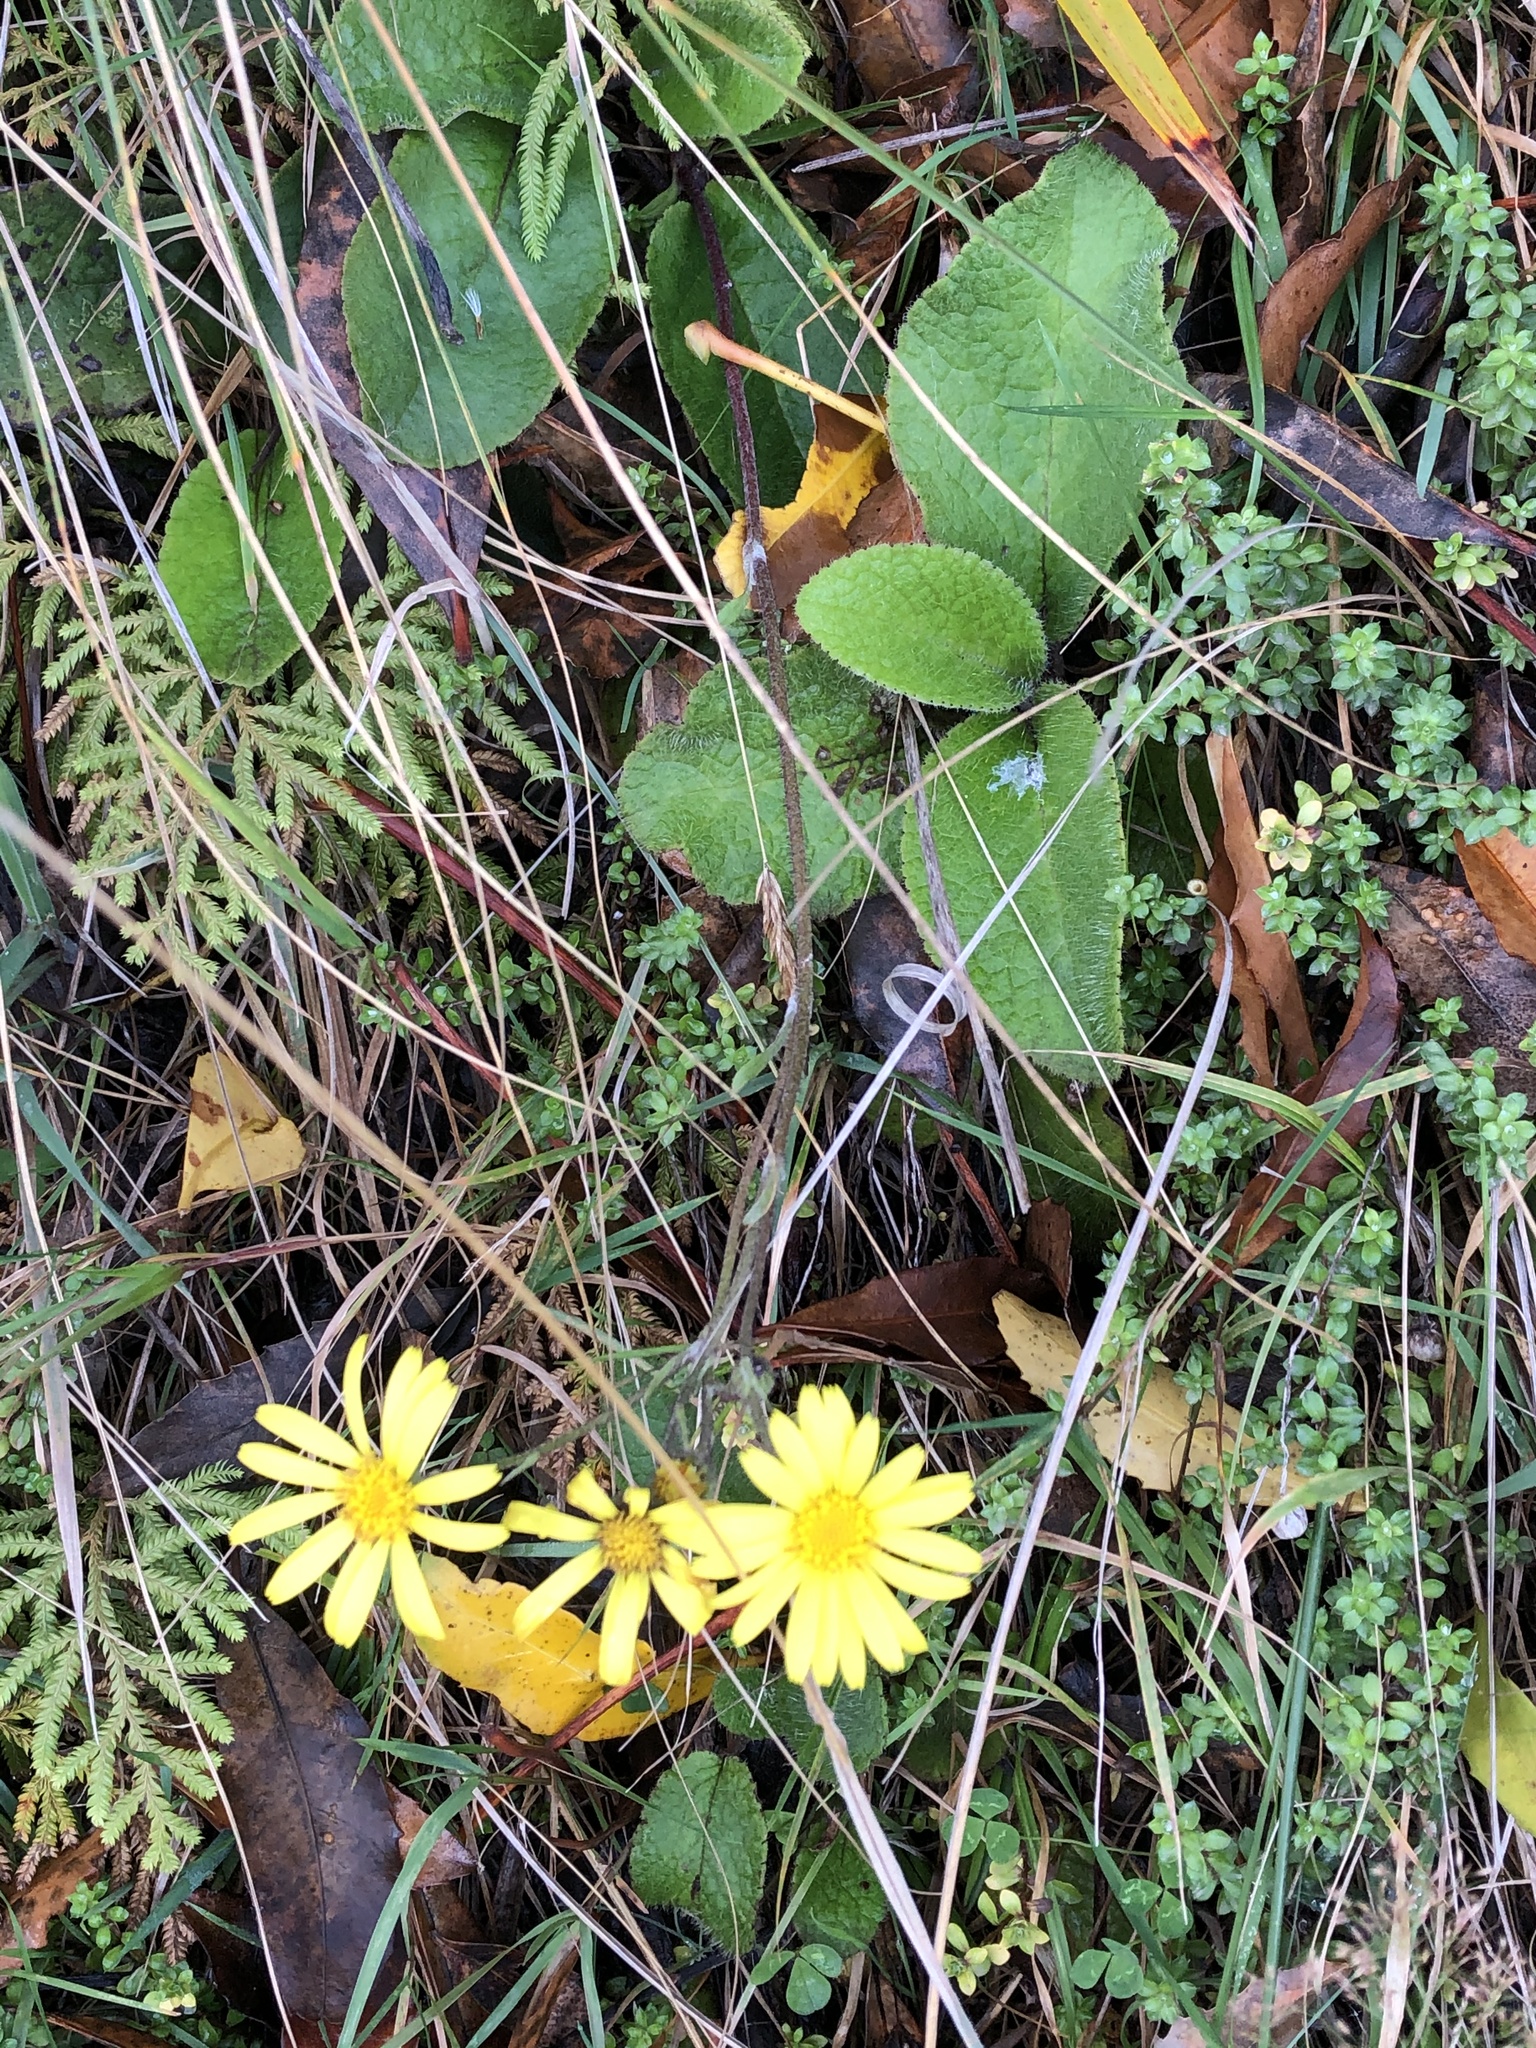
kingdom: Plantae
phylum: Tracheophyta
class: Magnoliopsida
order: Asterales
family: Asteraceae
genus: Brachyglottis
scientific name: Brachyglottis lagopus
